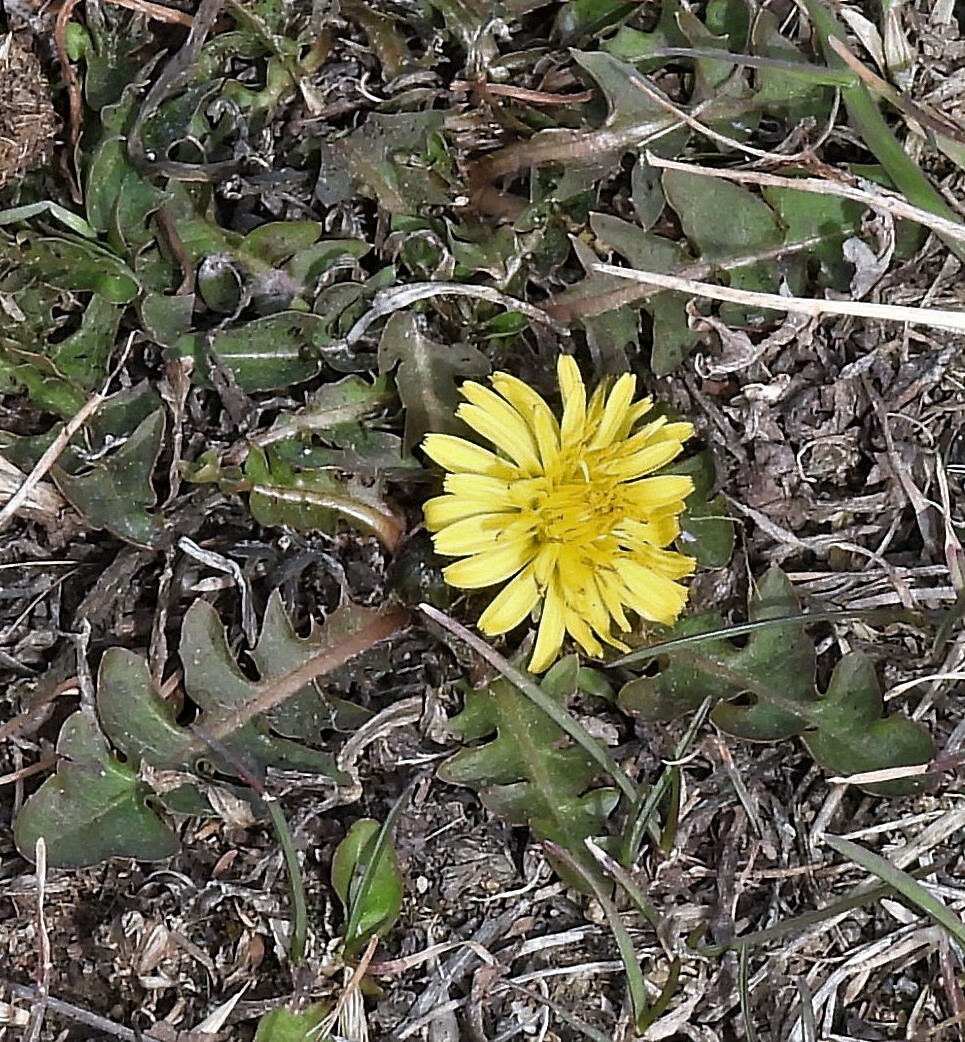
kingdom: Plantae
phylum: Tracheophyta
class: Magnoliopsida
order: Asterales
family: Asteraceae
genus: Taraxacum
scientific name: Taraxacum officinale
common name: Common dandelion
